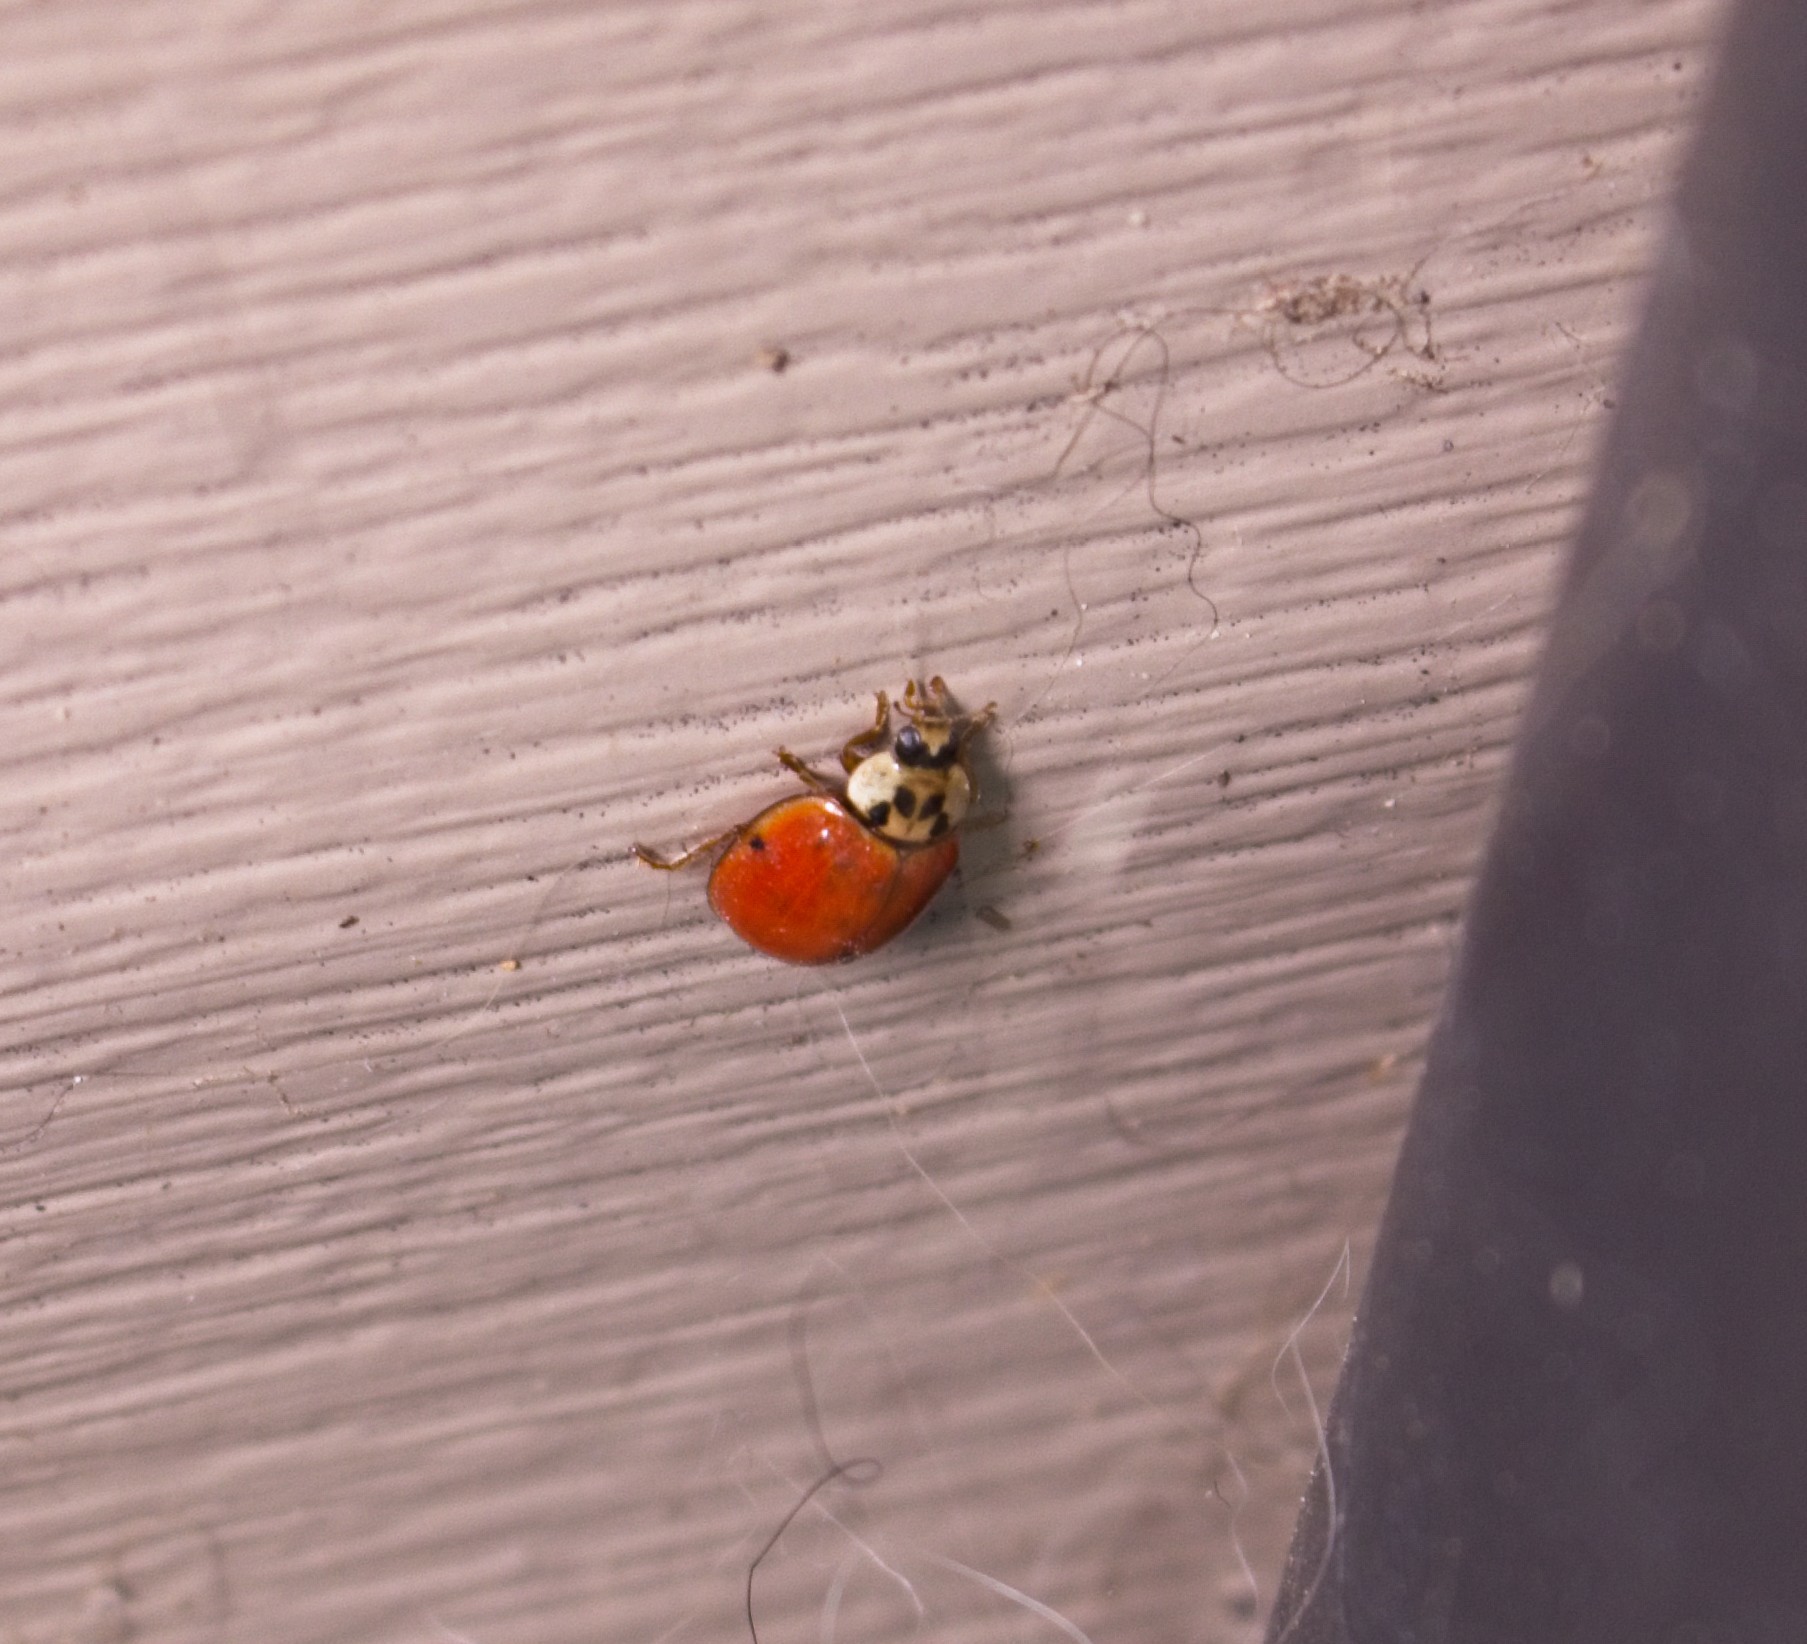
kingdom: Animalia
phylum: Arthropoda
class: Insecta
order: Coleoptera
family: Coccinellidae
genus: Harmonia
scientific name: Harmonia axyridis
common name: Harlequin ladybird
